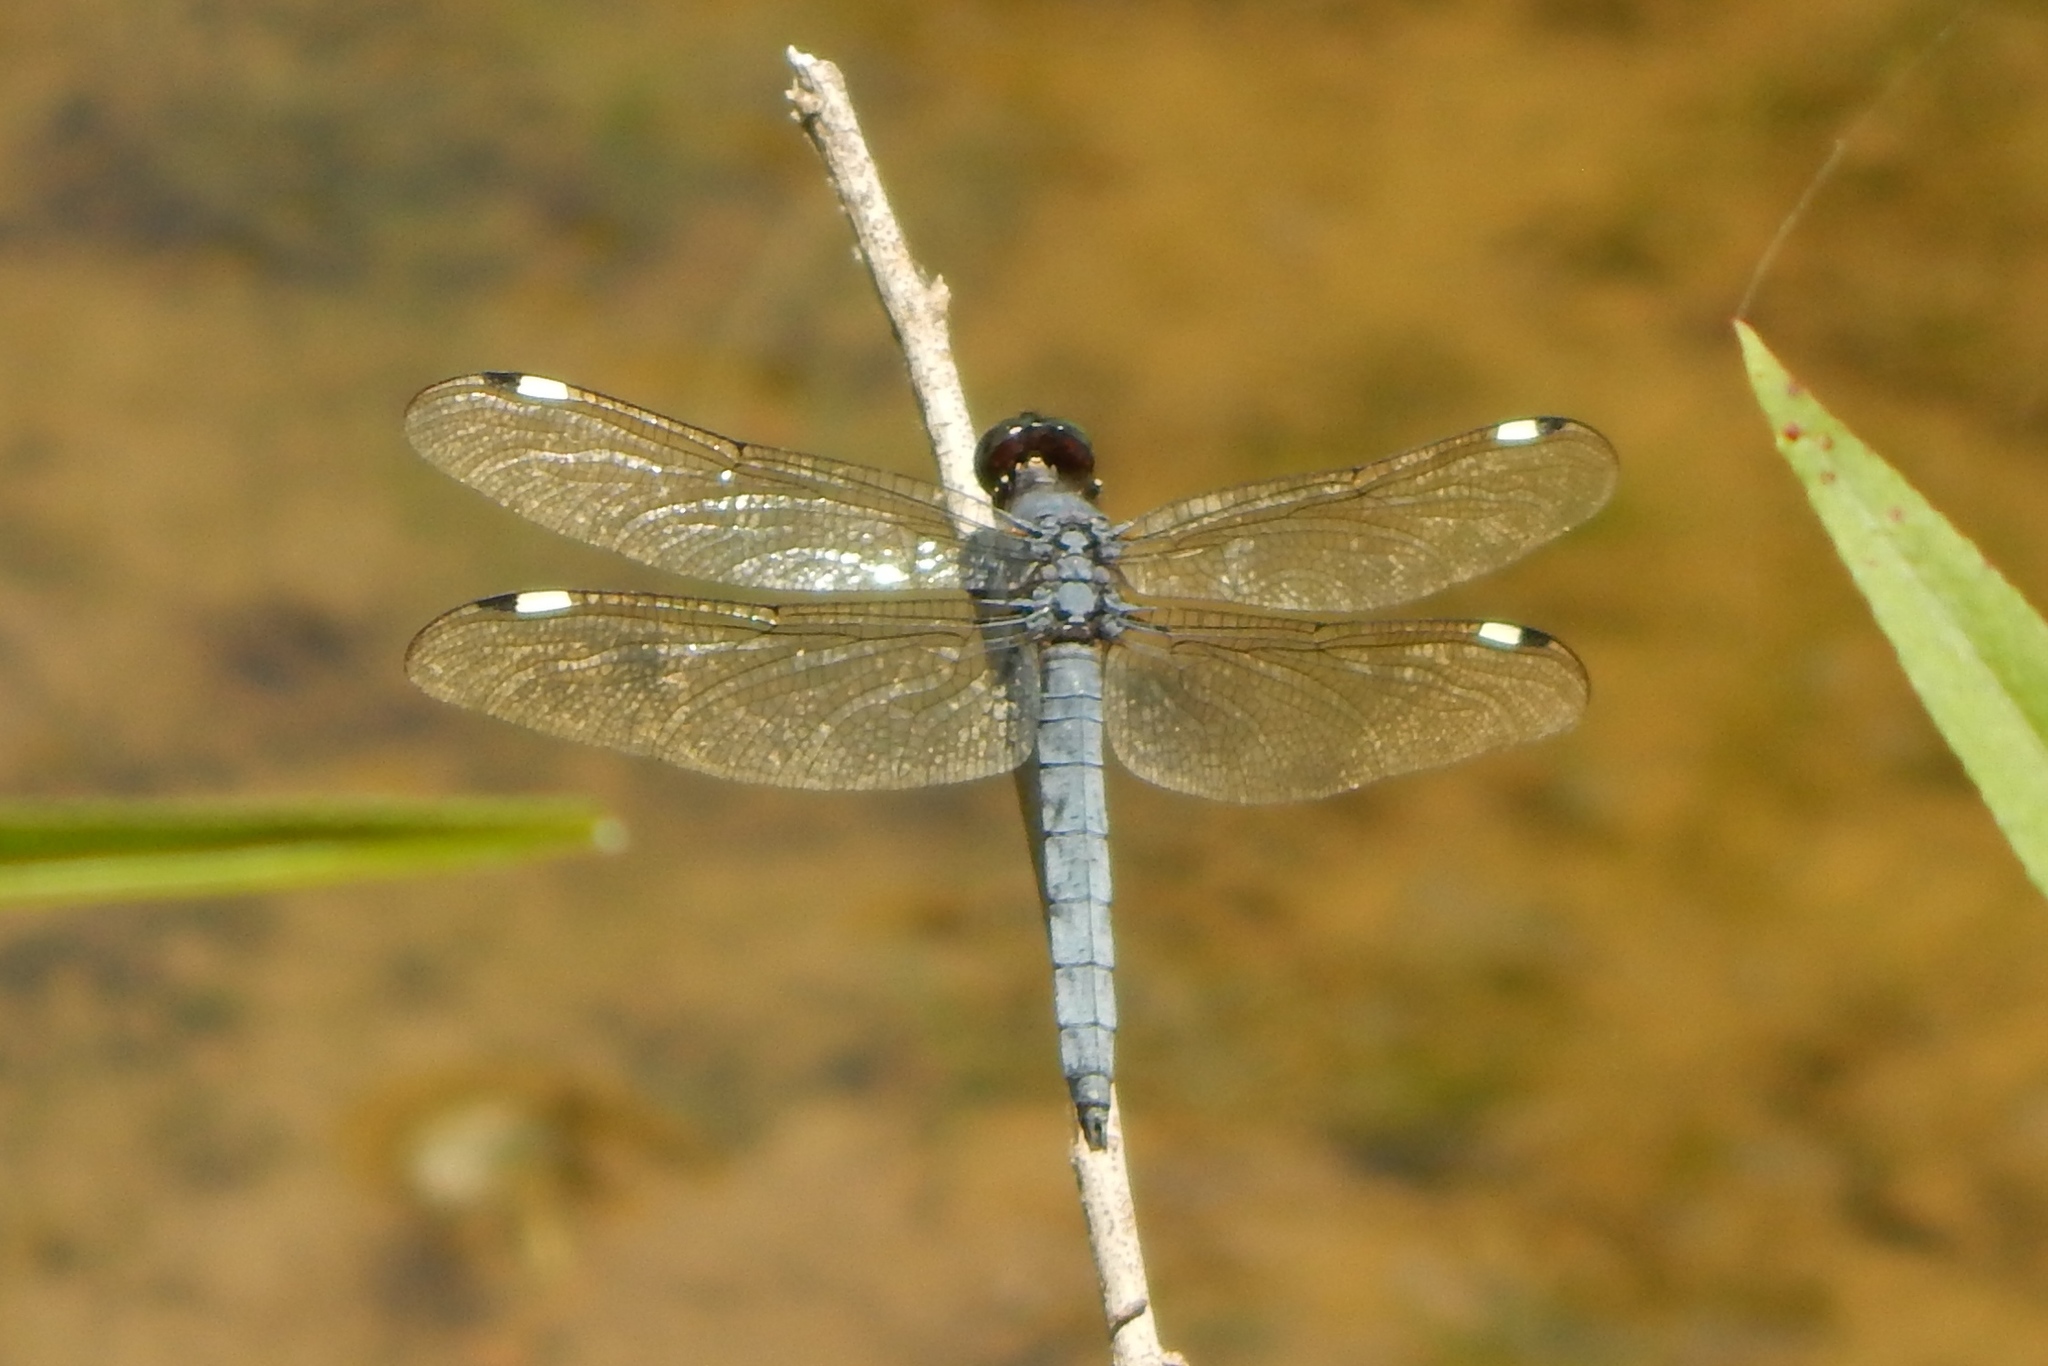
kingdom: Animalia
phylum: Arthropoda
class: Insecta
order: Odonata
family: Libellulidae
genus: Libellula
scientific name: Libellula cyanea
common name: Spangled skimmer
